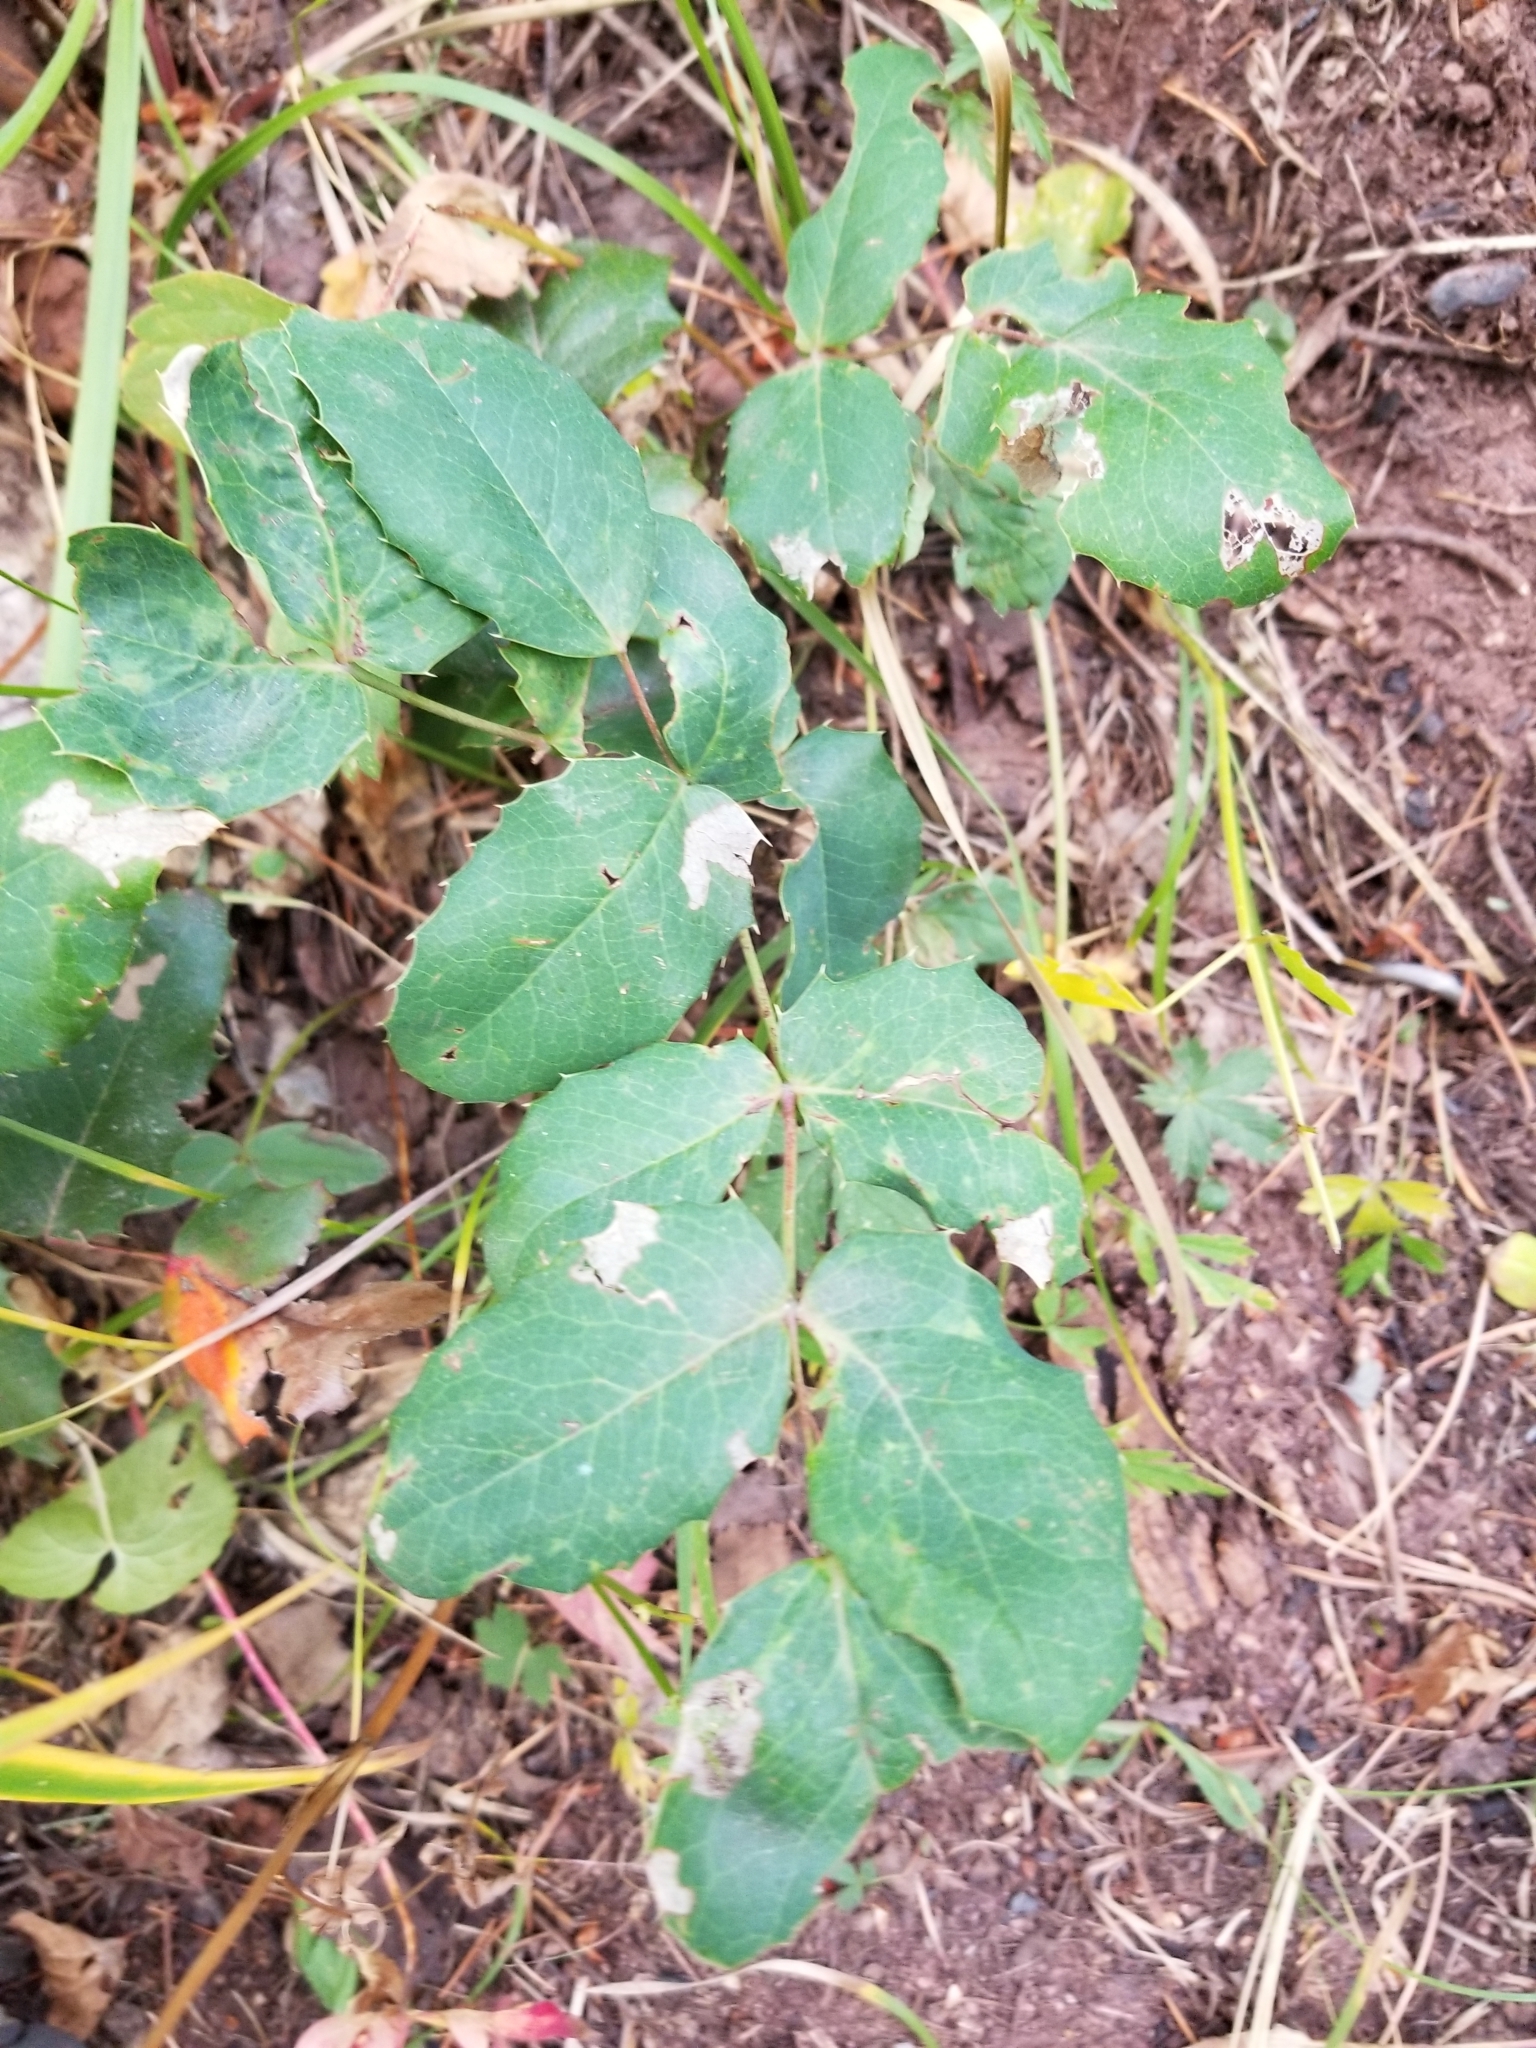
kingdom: Plantae
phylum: Tracheophyta
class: Magnoliopsida
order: Ranunculales
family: Berberidaceae
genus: Mahonia
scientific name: Mahonia repens
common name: Creeping oregon-grape
